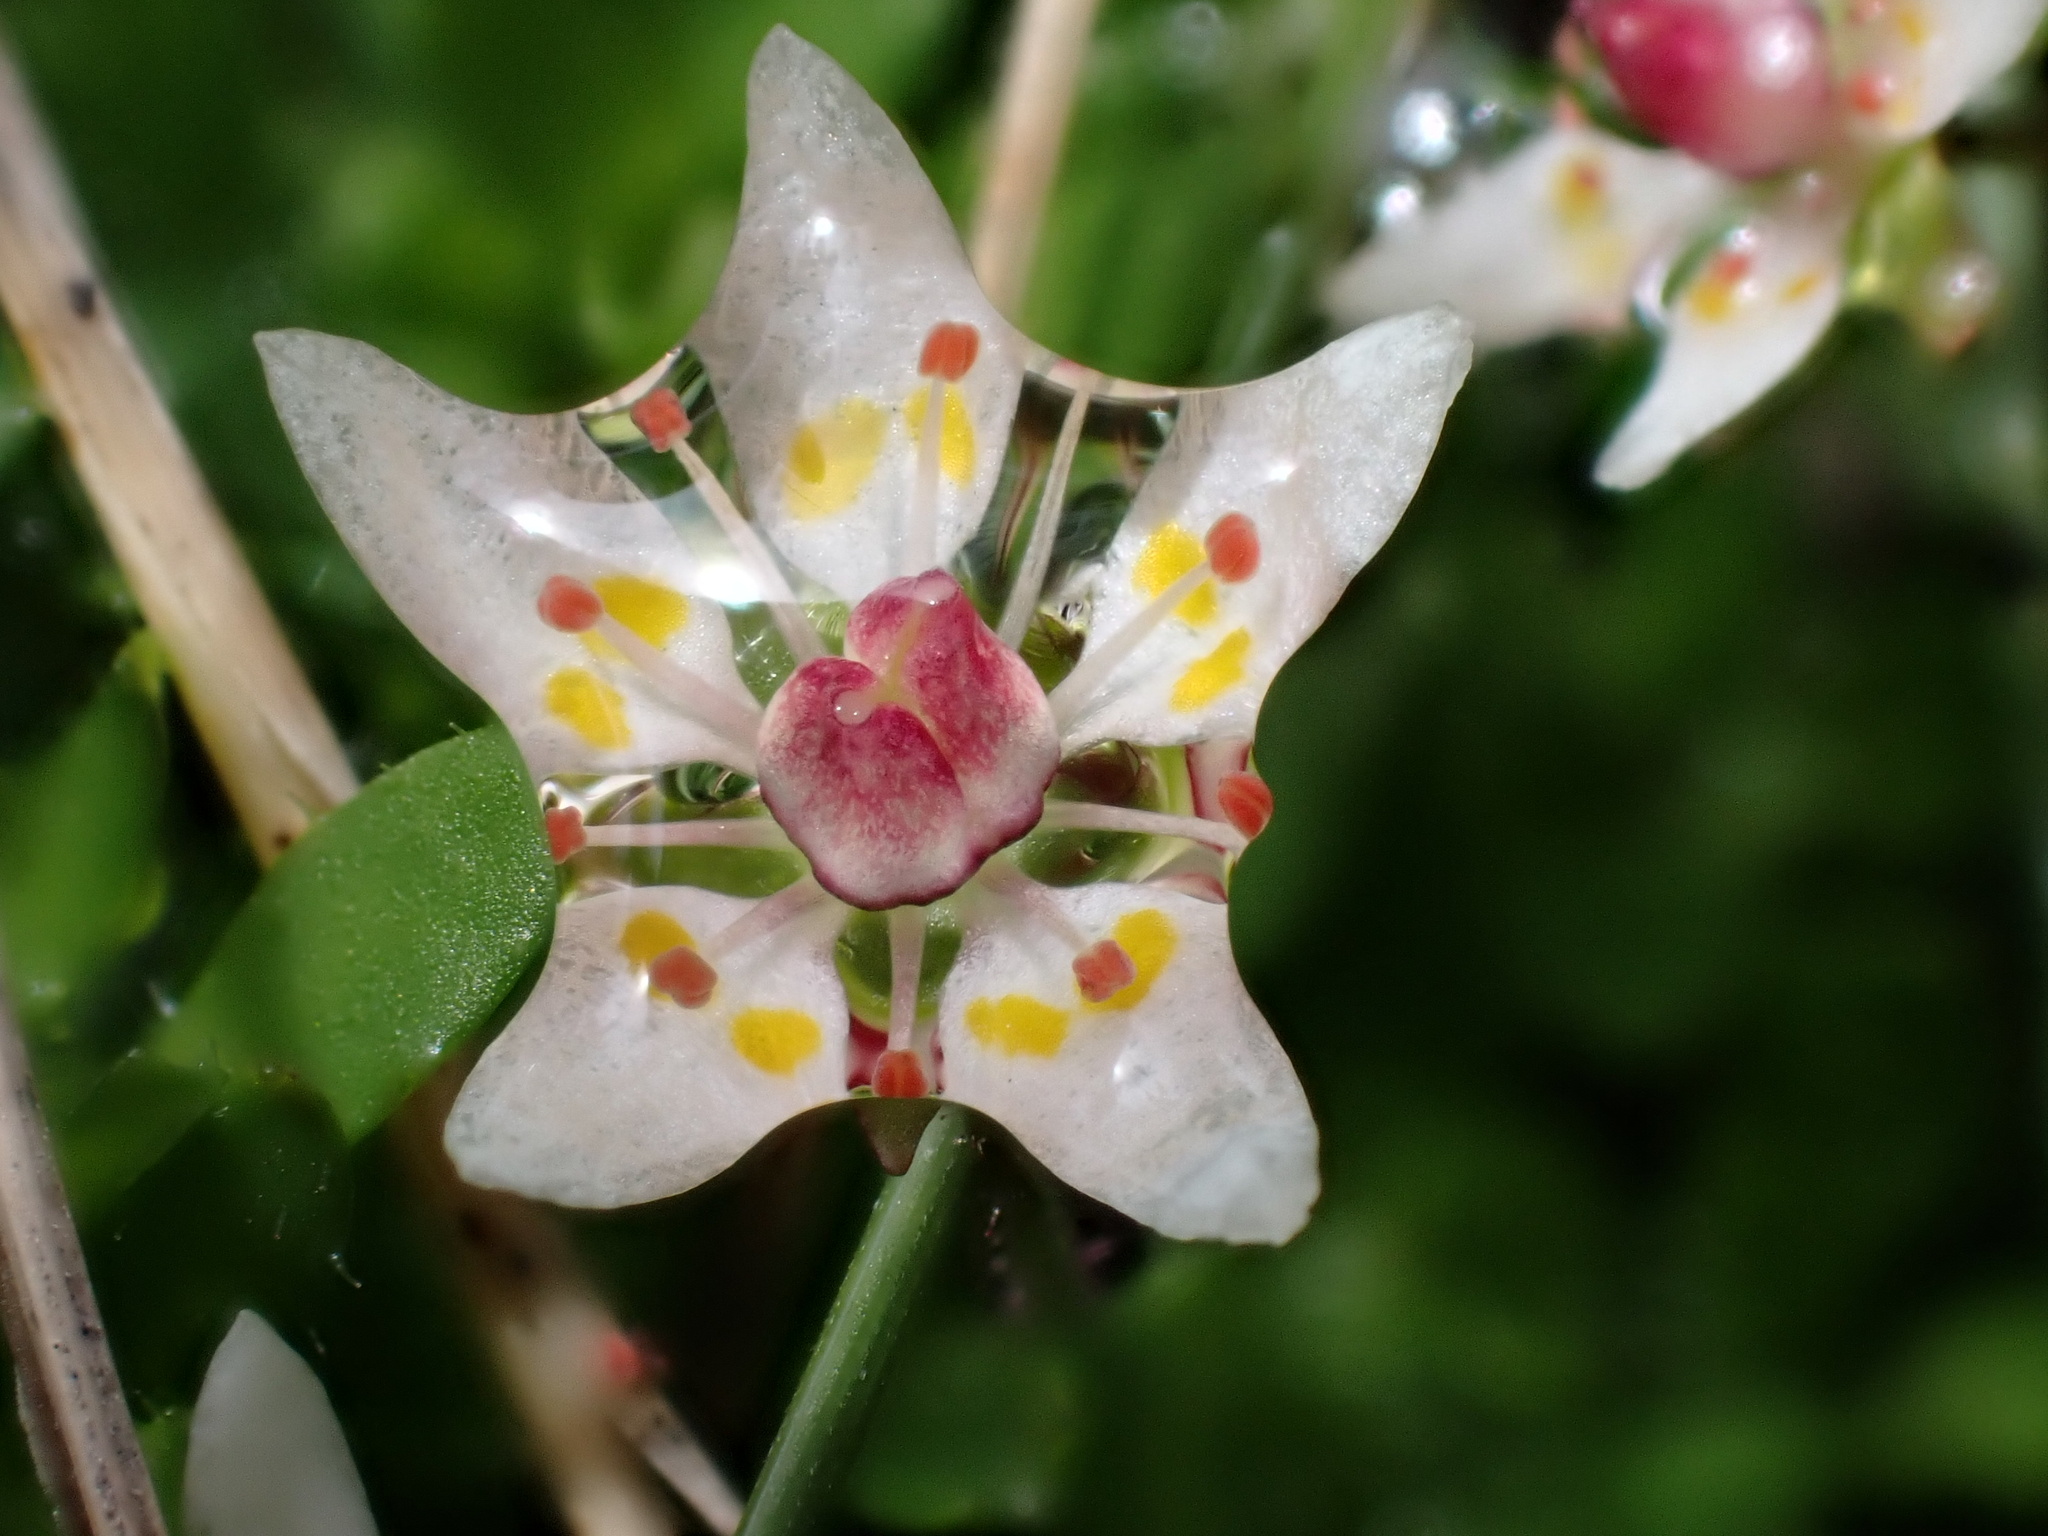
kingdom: Plantae
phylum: Tracheophyta
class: Magnoliopsida
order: Saxifragales
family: Saxifragaceae
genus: Micranthes
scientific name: Micranthes stellaris
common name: Starry saxifrage
